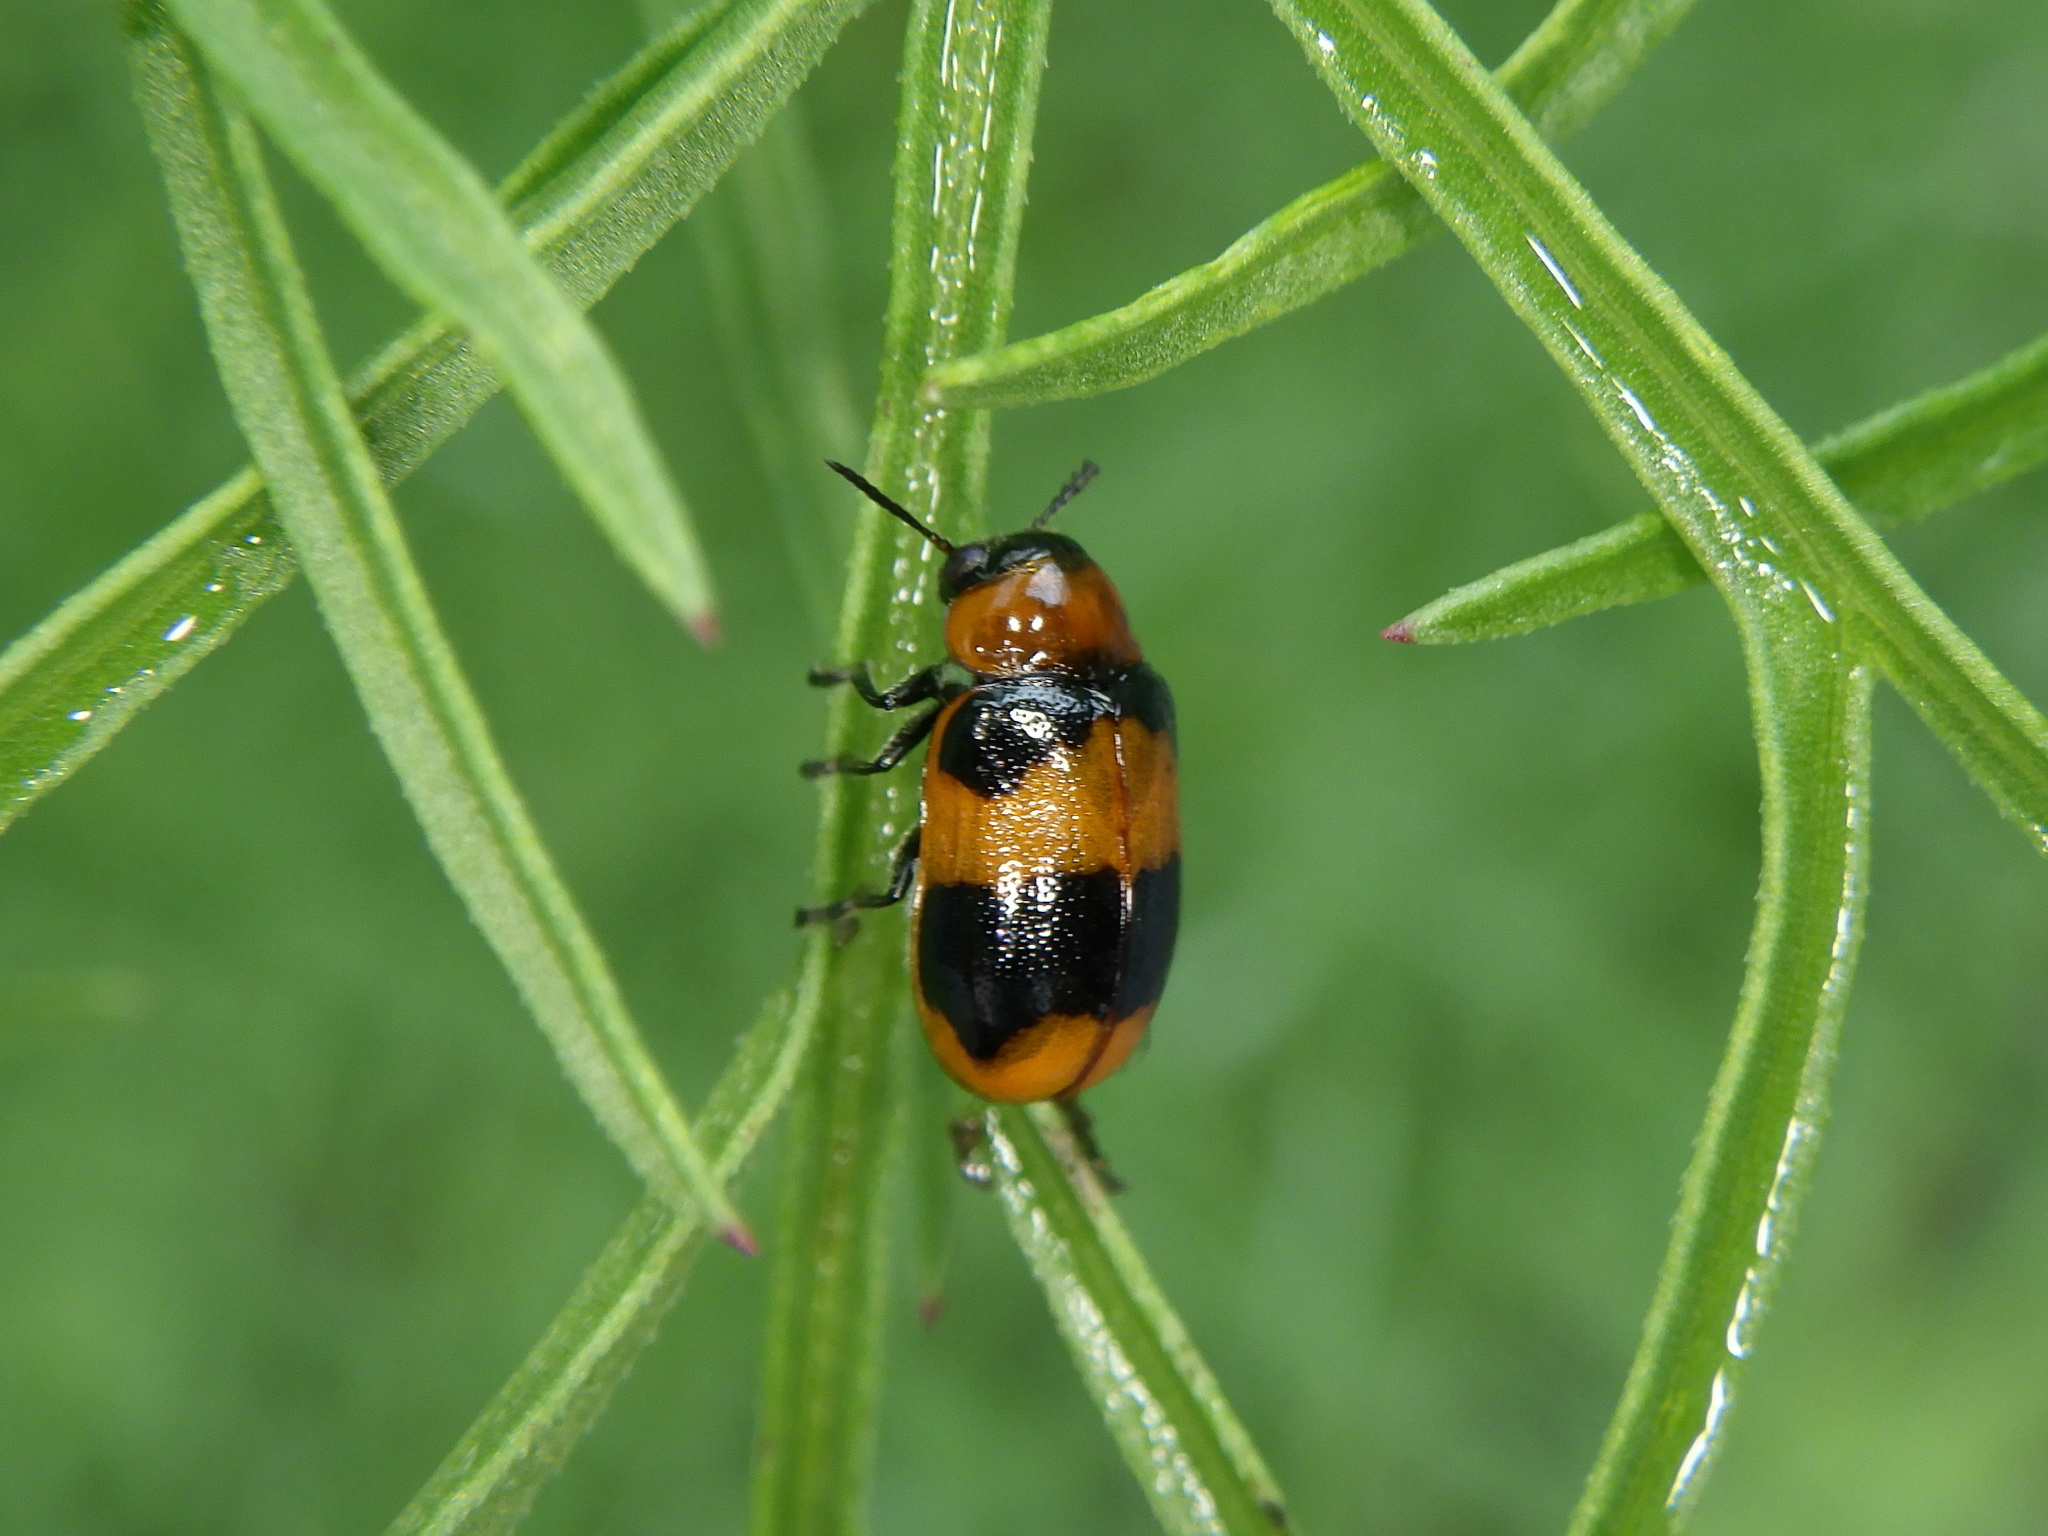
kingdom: Animalia
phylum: Arthropoda
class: Insecta
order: Coleoptera
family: Chrysomelidae
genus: Physosmaragdina
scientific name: Physosmaragdina nigrifrons
